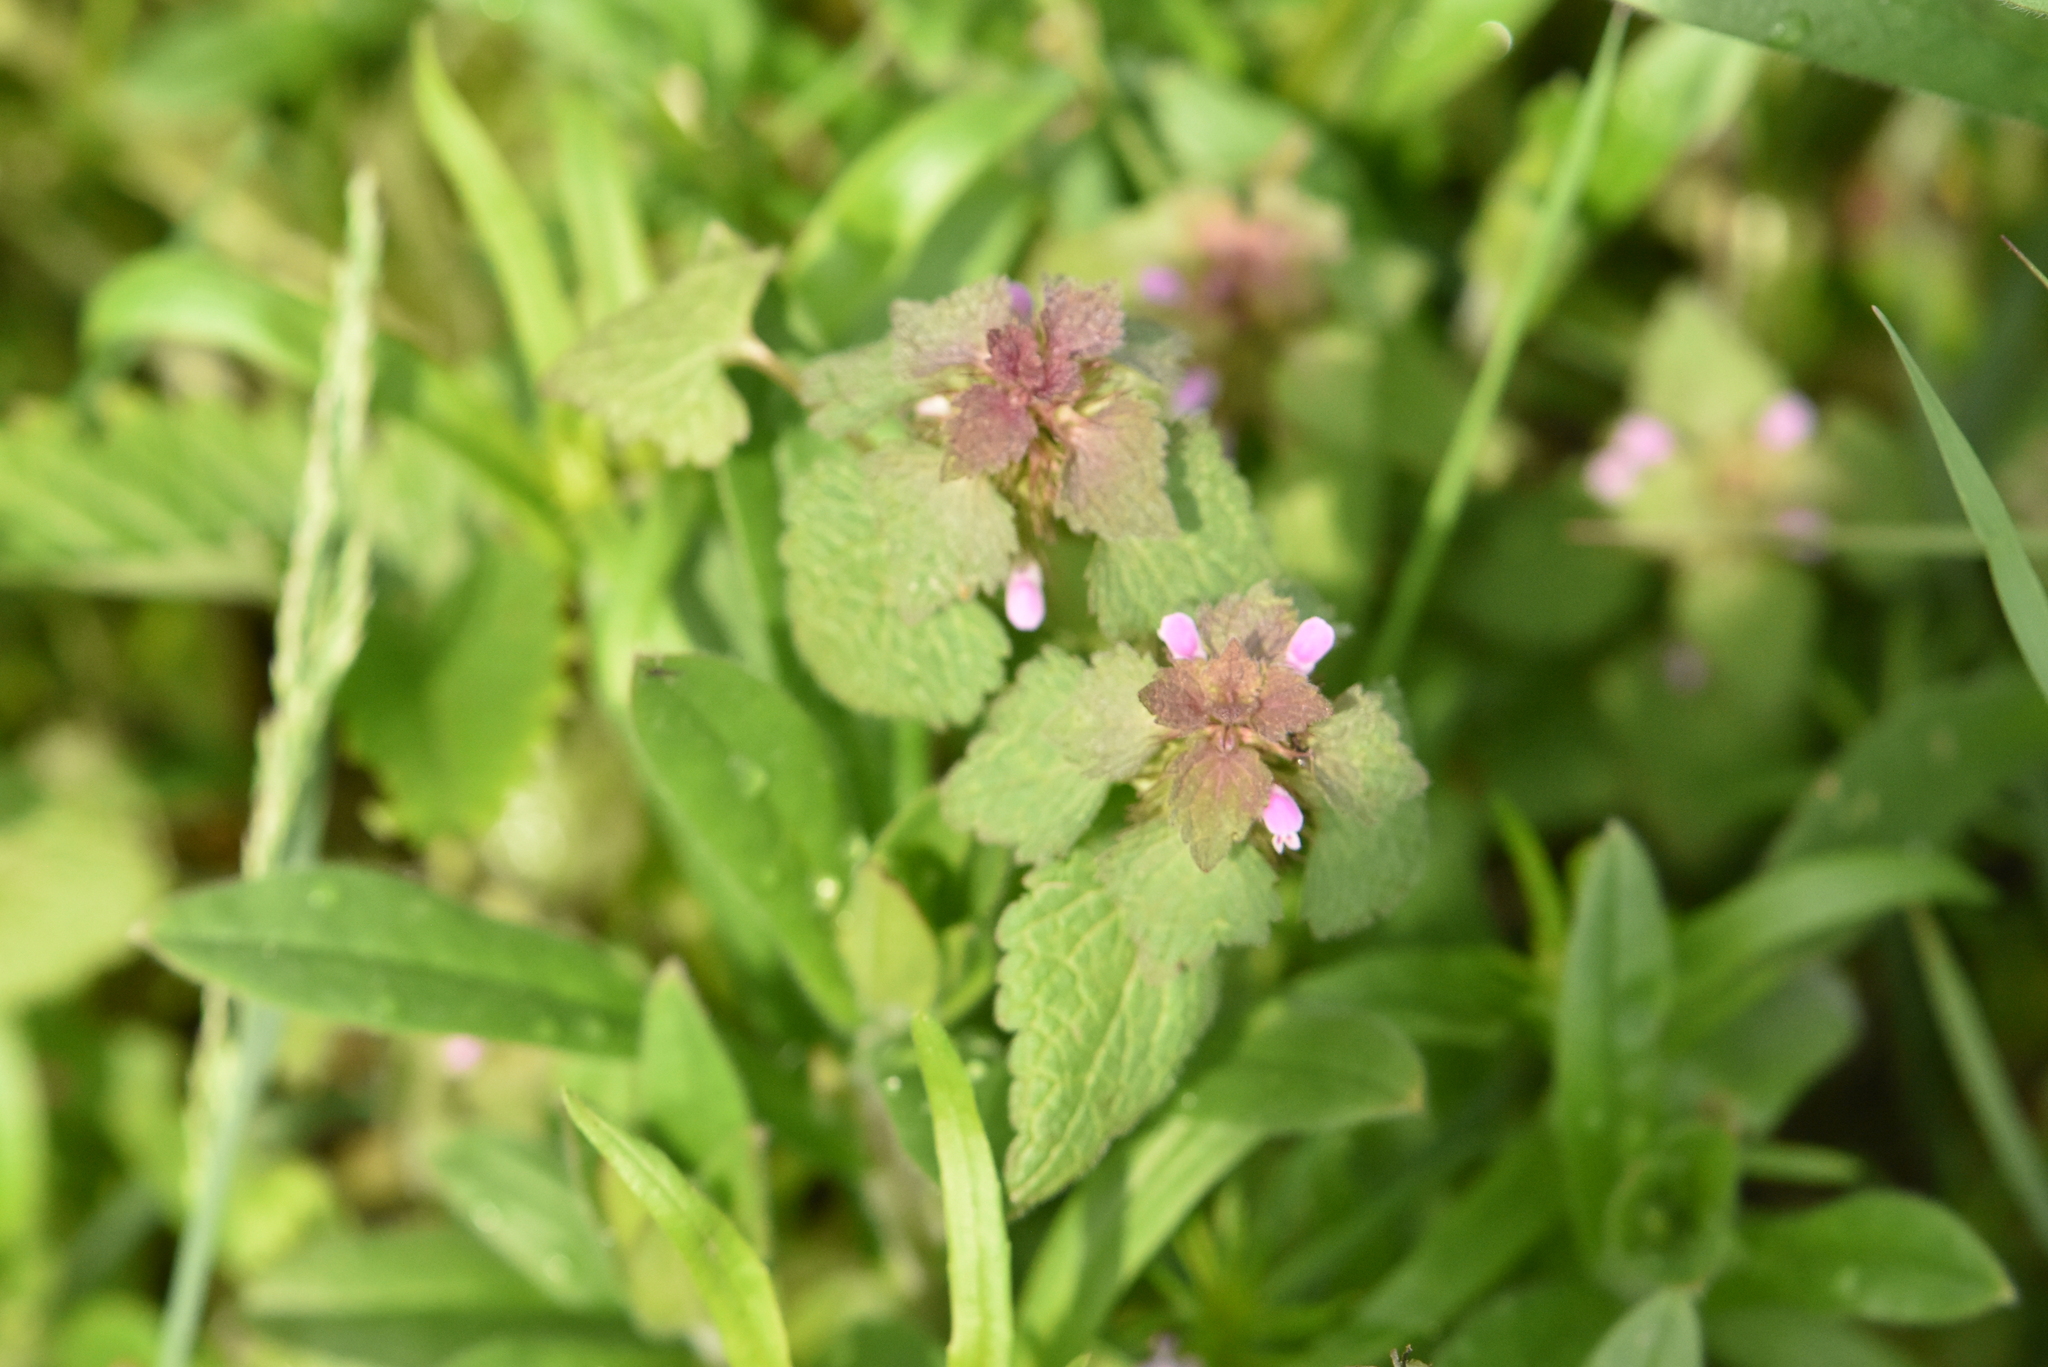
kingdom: Plantae
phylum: Tracheophyta
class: Magnoliopsida
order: Lamiales
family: Lamiaceae
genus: Lamium
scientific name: Lamium purpureum
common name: Red dead-nettle
